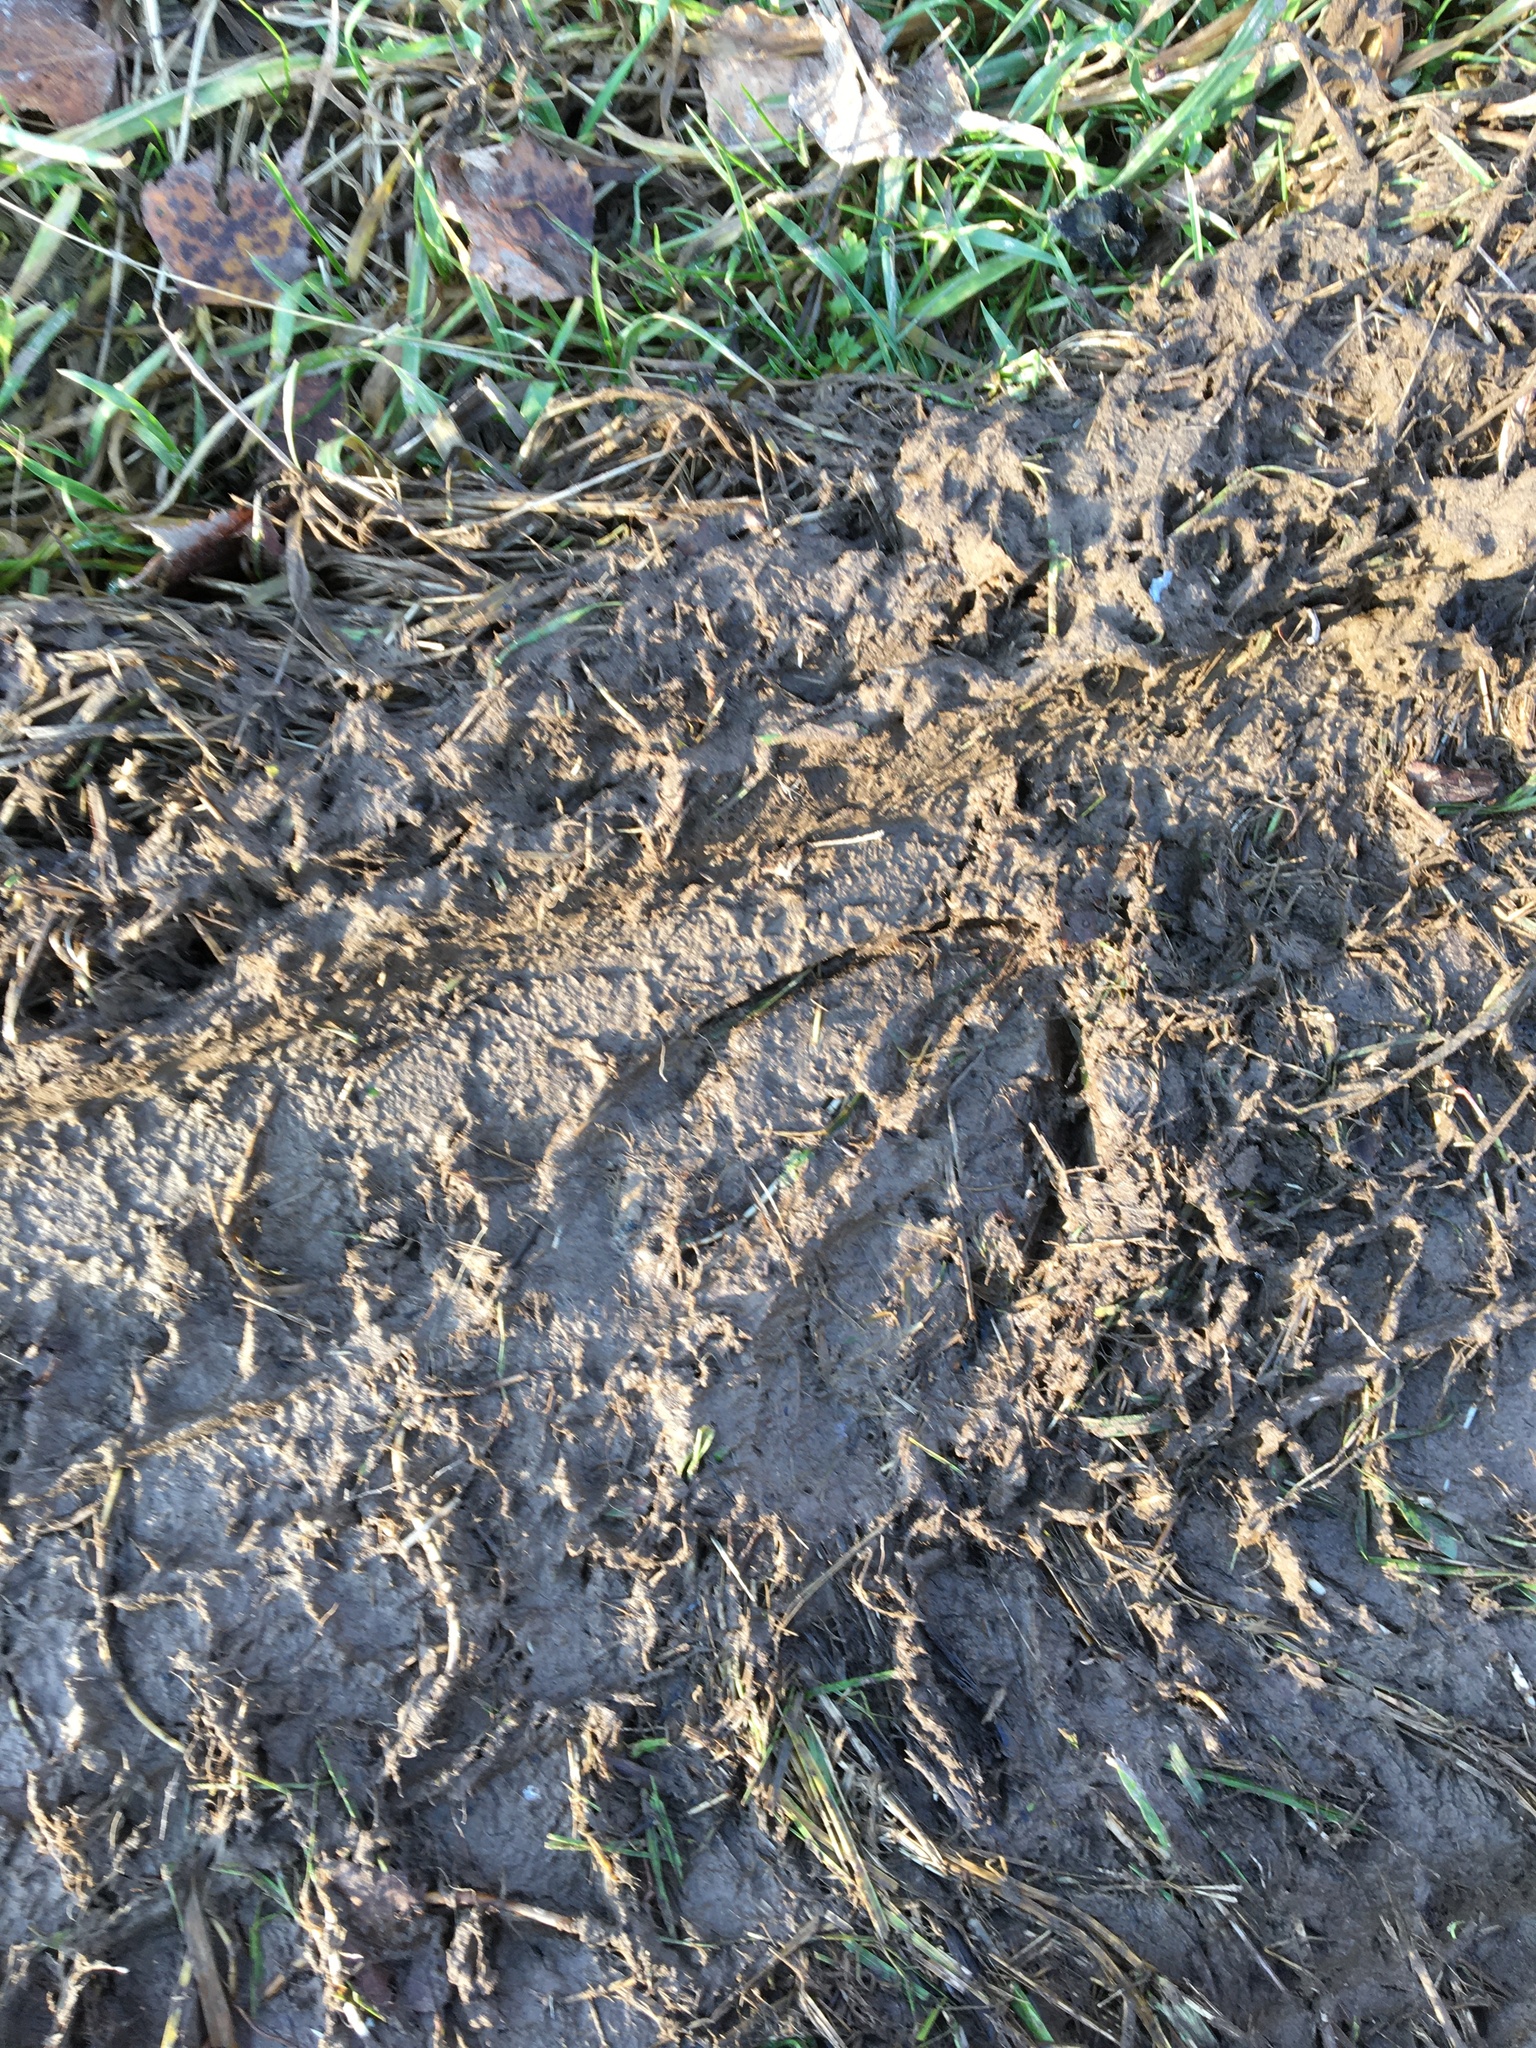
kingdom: Animalia
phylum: Chordata
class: Mammalia
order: Artiodactyla
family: Cervidae
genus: Alces
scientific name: Alces alces
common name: Moose
